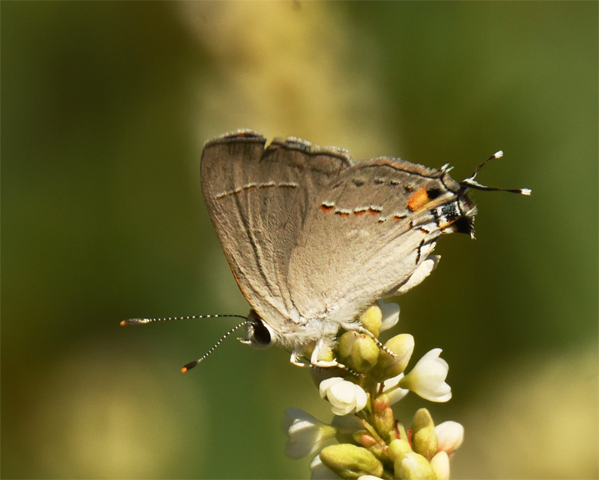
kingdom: Animalia
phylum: Arthropoda
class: Insecta
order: Lepidoptera
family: Lycaenidae
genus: Strymon
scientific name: Strymon melinus
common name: Gray hairstreak
